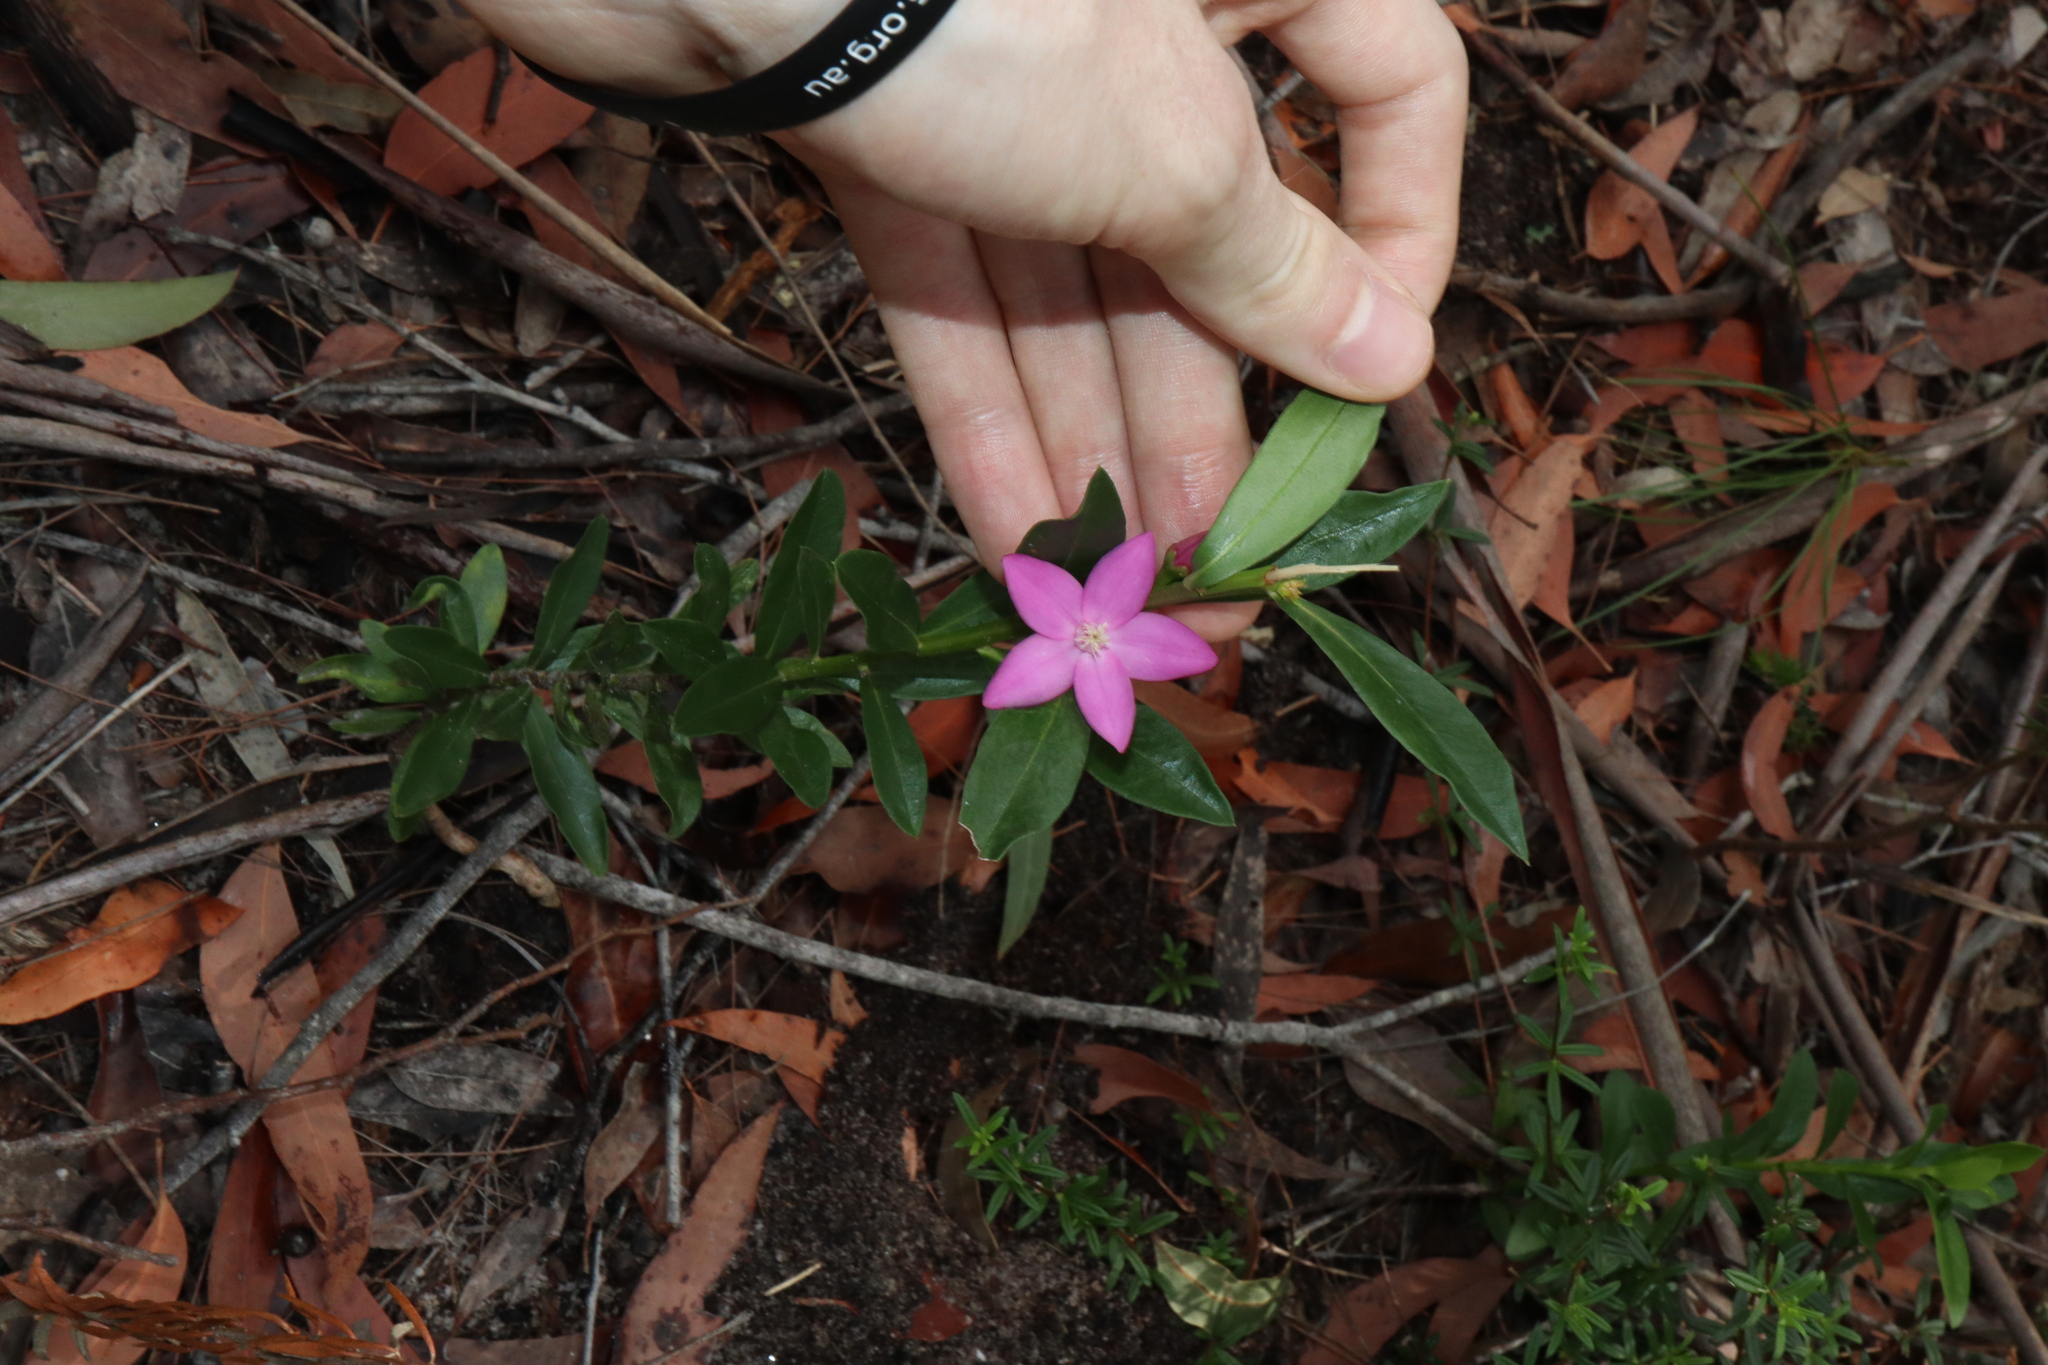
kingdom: Plantae
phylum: Tracheophyta
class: Magnoliopsida
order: Sapindales
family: Rutaceae
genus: Crowea
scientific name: Crowea saligna
